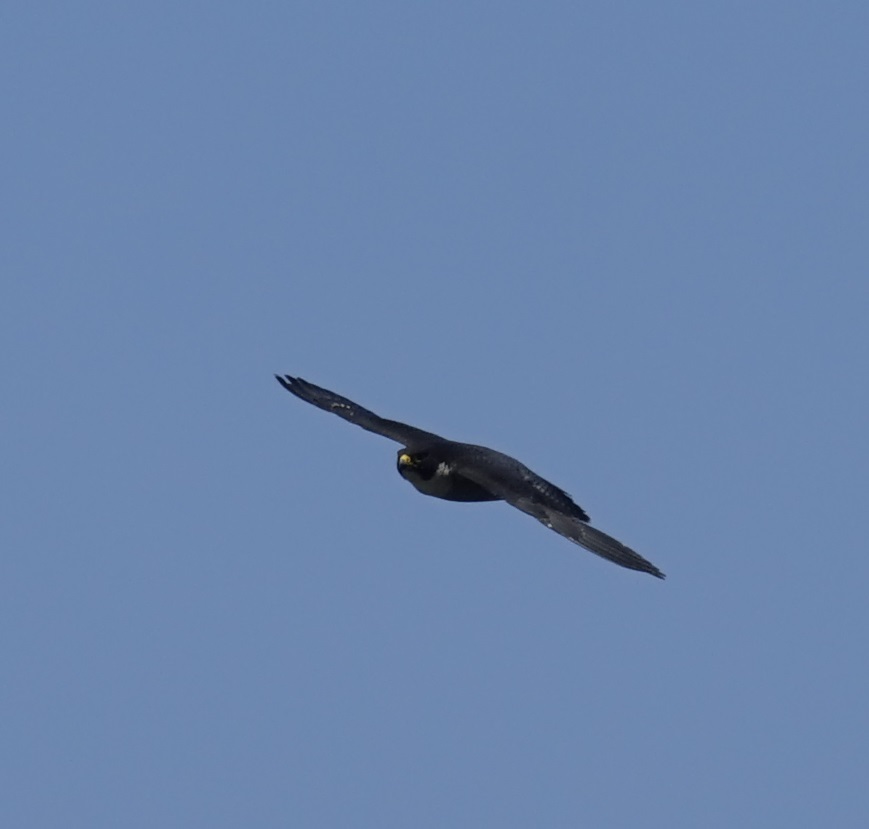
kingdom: Animalia
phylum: Chordata
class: Aves
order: Falconiformes
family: Falconidae
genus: Falco
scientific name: Falco peregrinus
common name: Peregrine falcon
